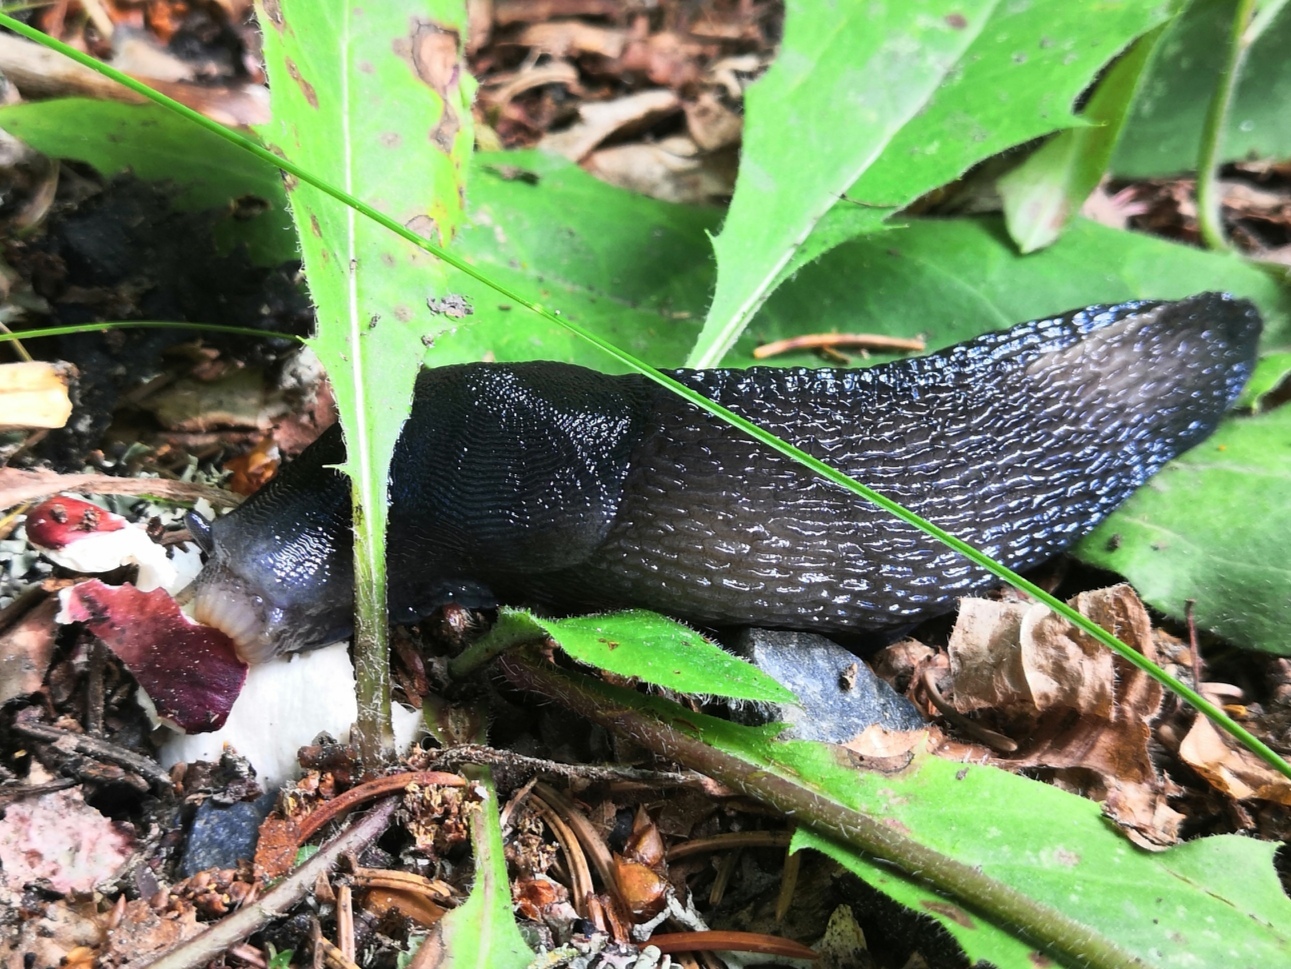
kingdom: Animalia
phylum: Mollusca
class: Gastropoda
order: Stylommatophora
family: Limacidae
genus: Limax
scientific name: Limax cinereoniger
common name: Ash-black slug
